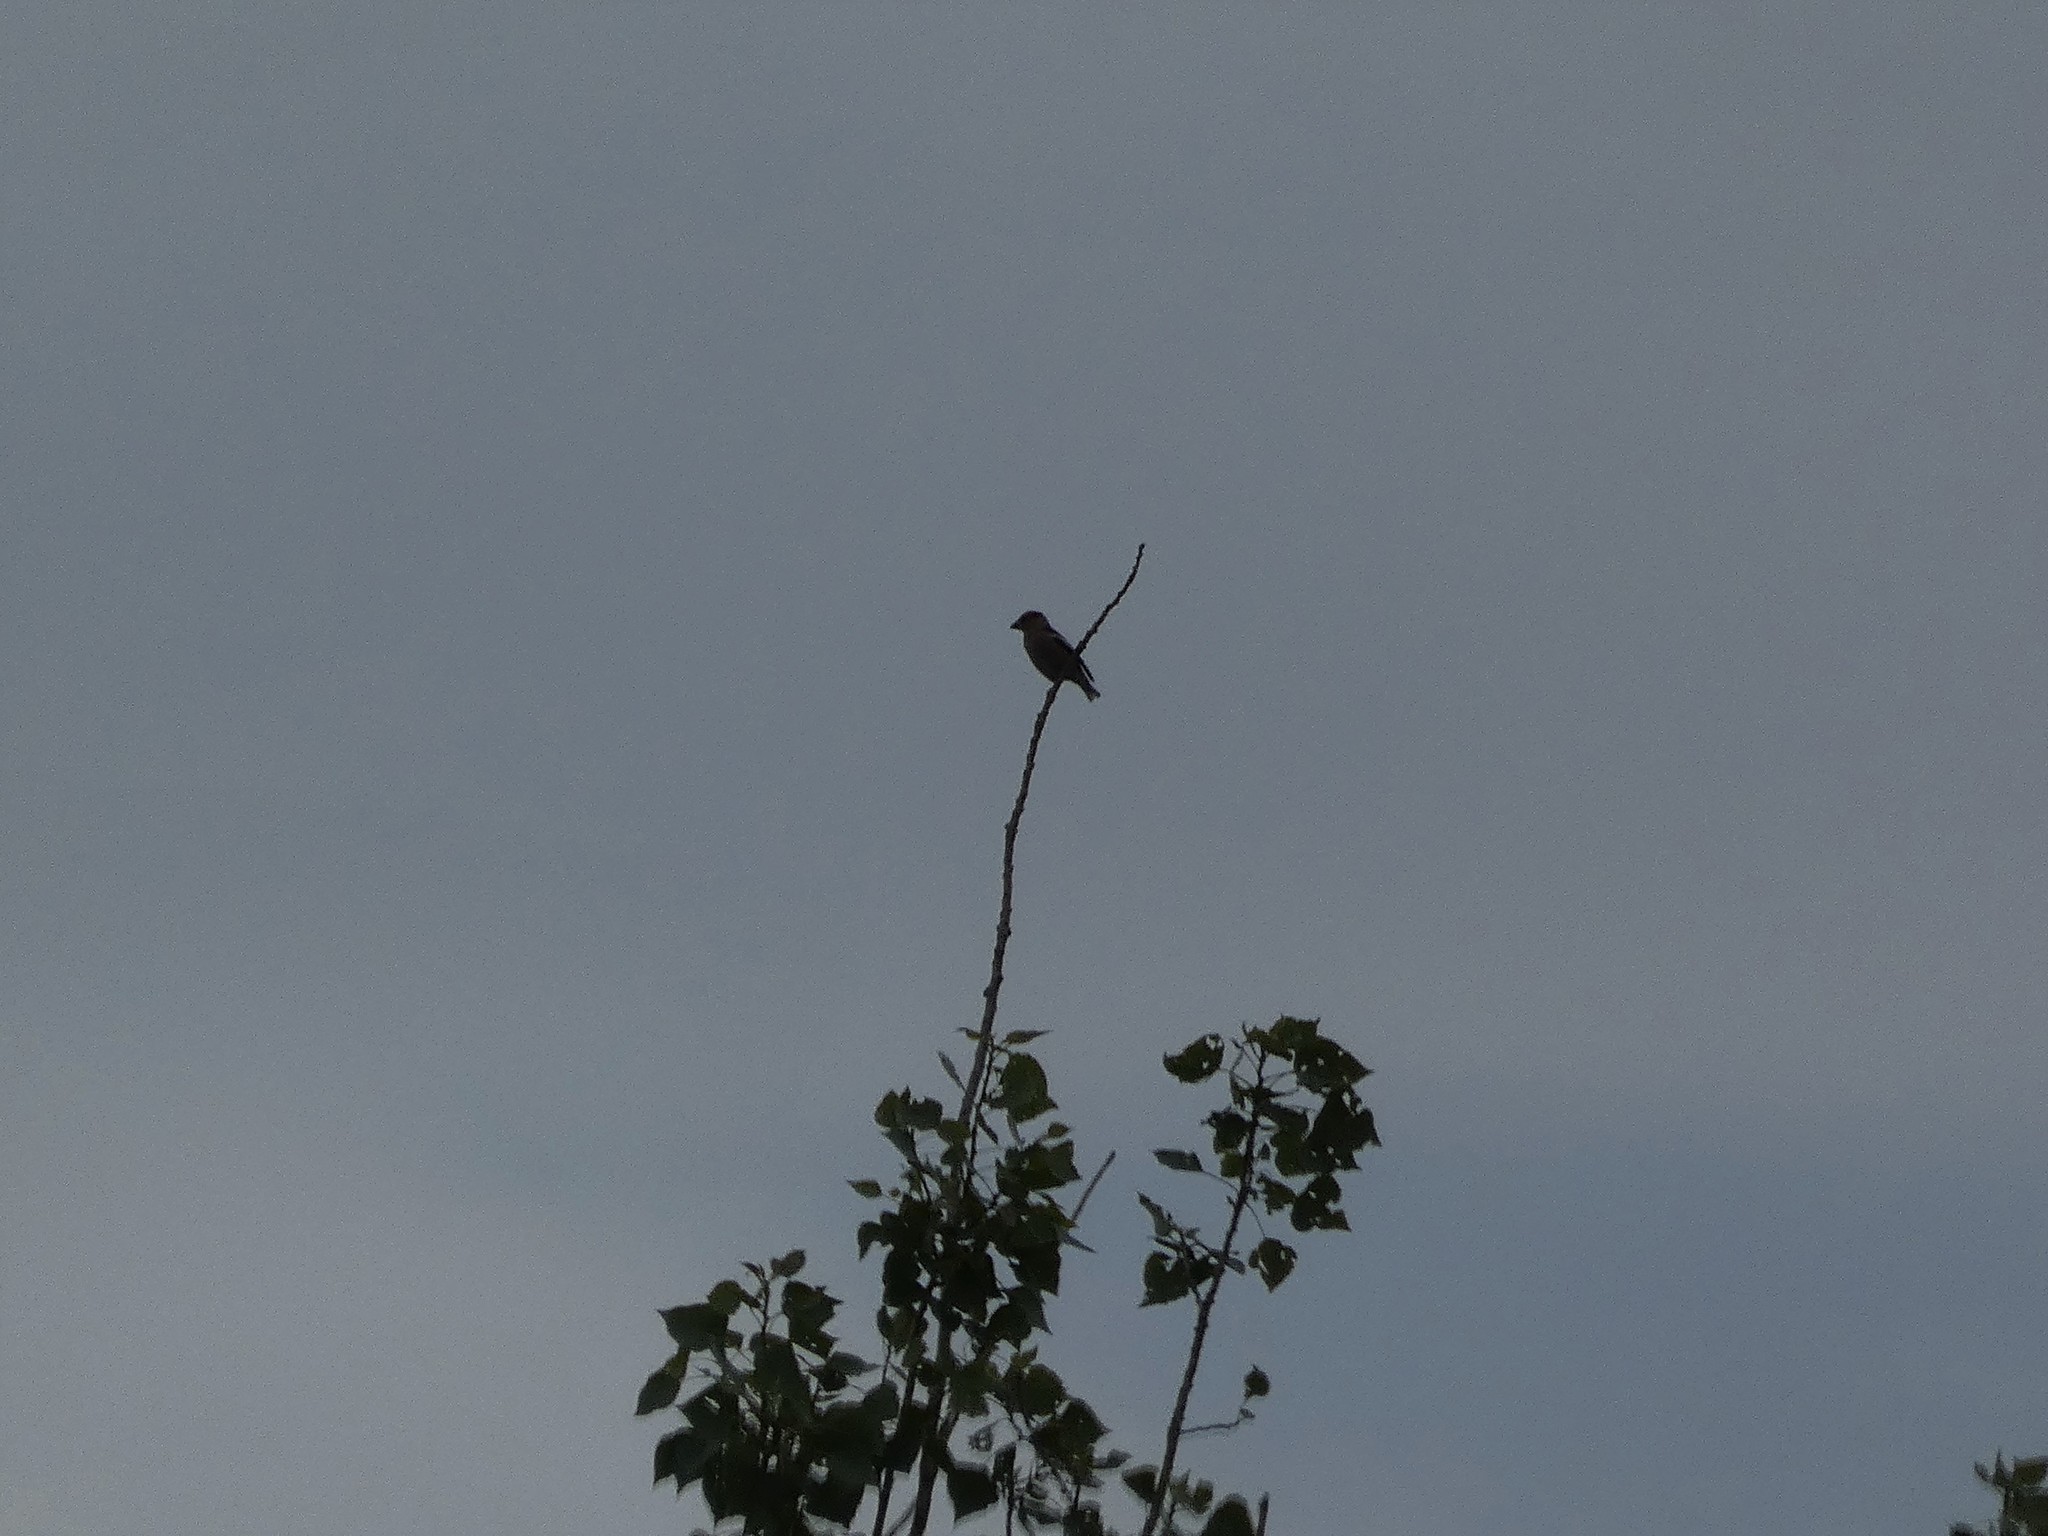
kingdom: Animalia
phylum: Chordata
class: Aves
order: Passeriformes
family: Fringillidae
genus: Coccothraustes
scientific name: Coccothraustes coccothraustes
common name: Hawfinch
